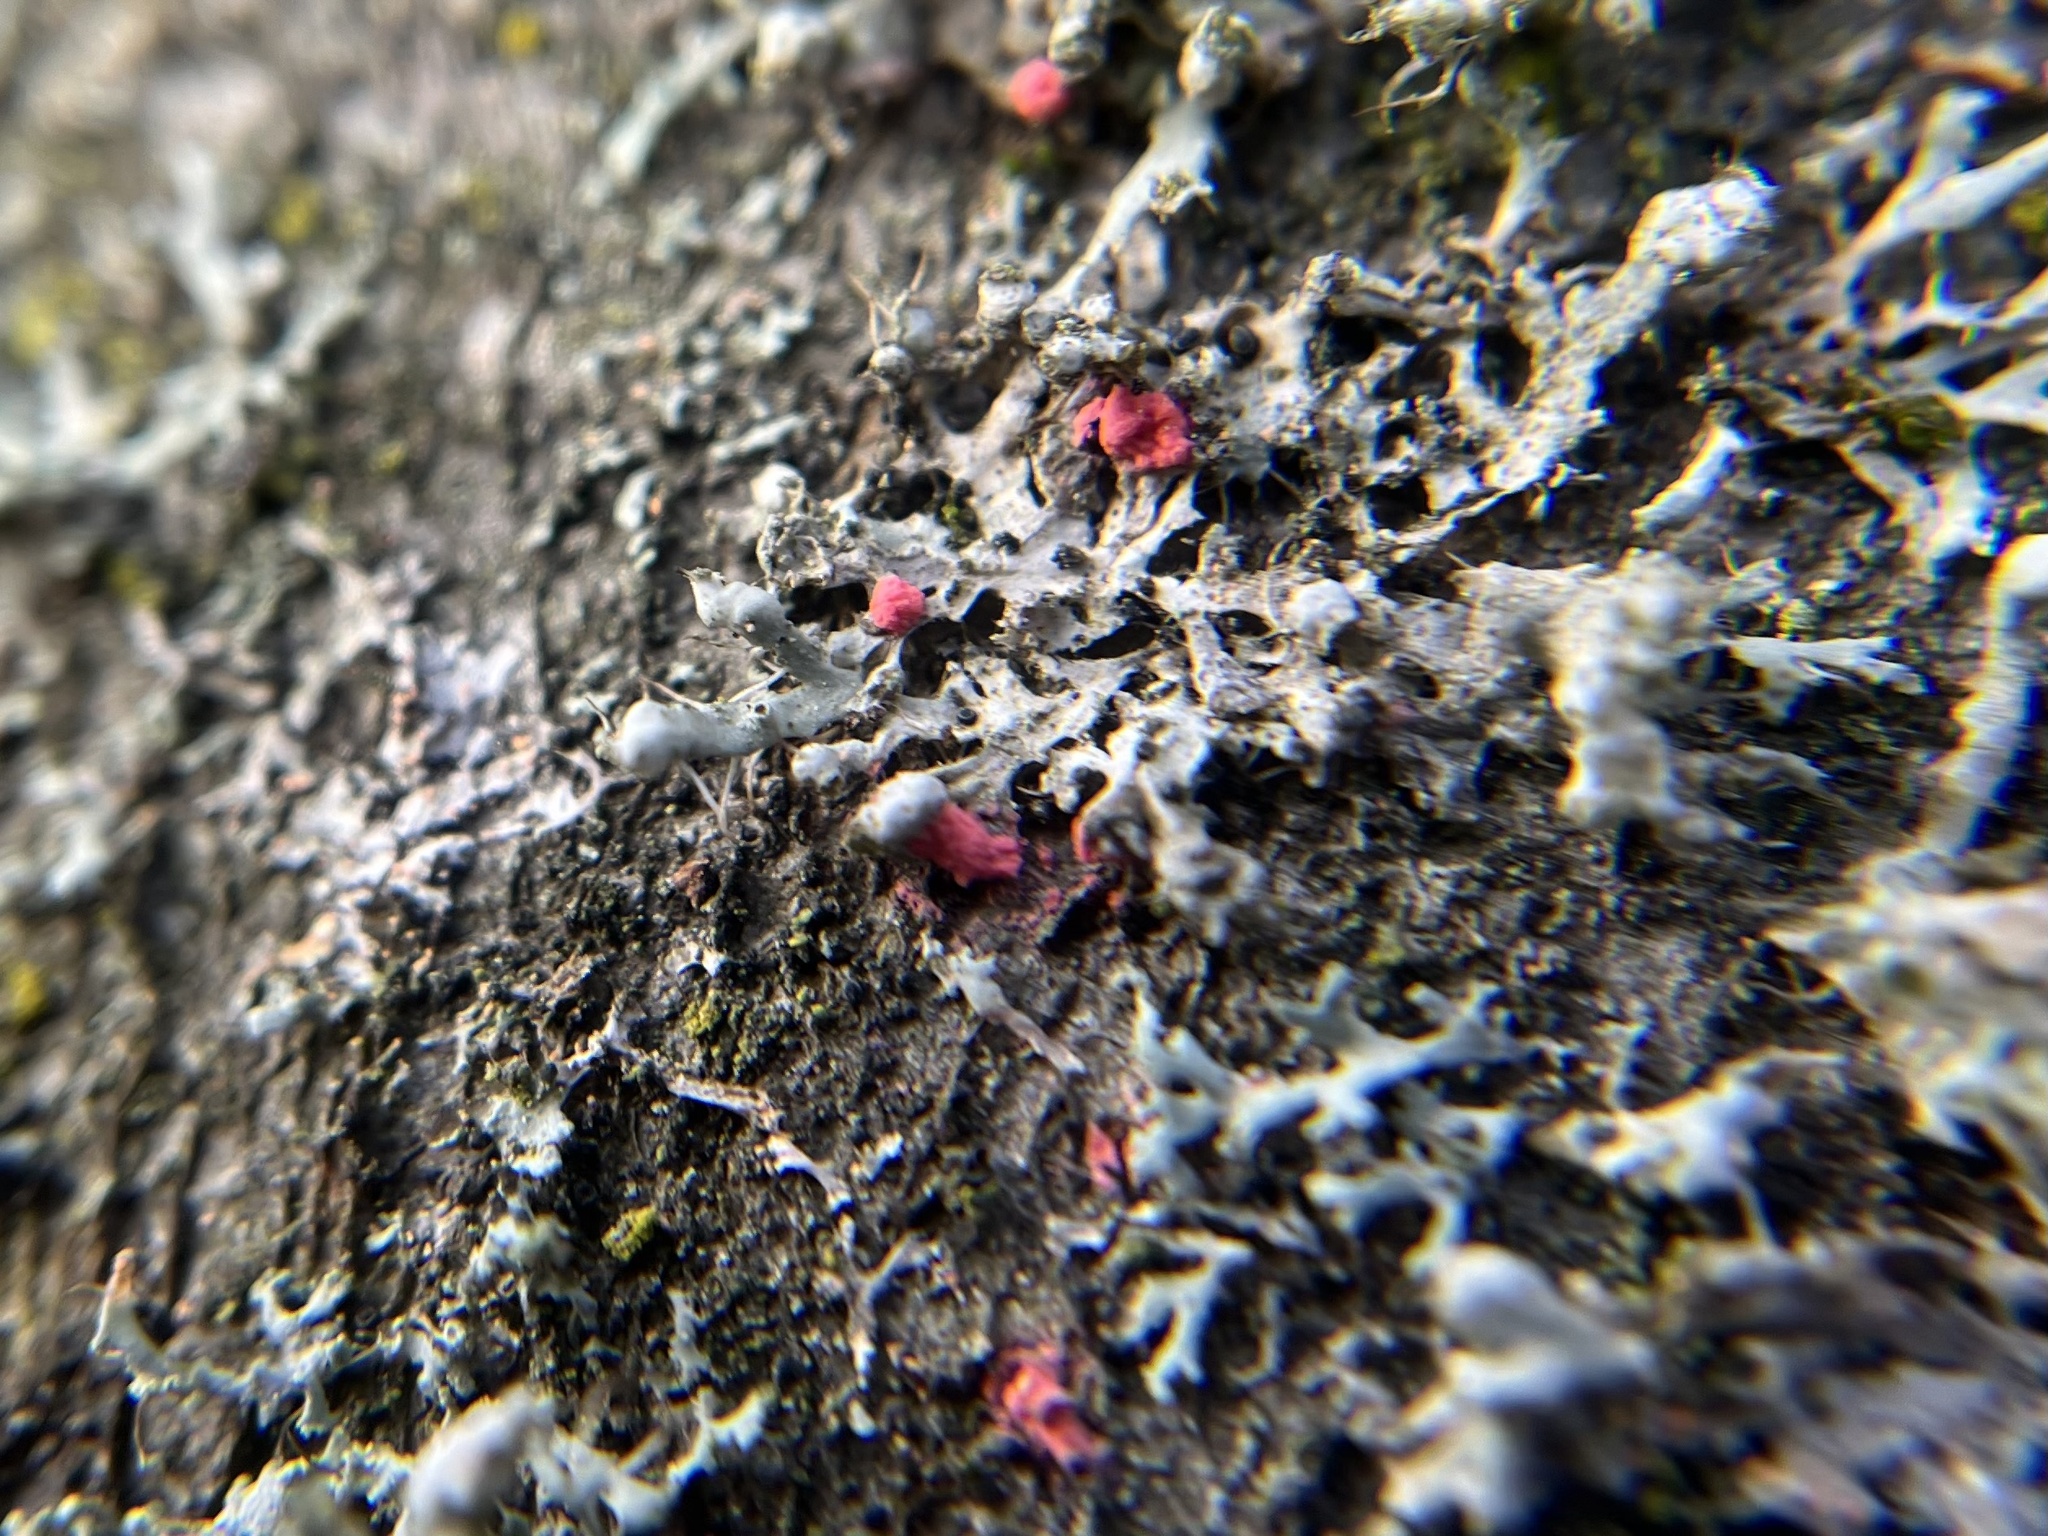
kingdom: Fungi
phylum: Ascomycota
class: Sordariomycetes
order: Hypocreales
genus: Illosporiopsis
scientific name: Illosporiopsis christiansenii
